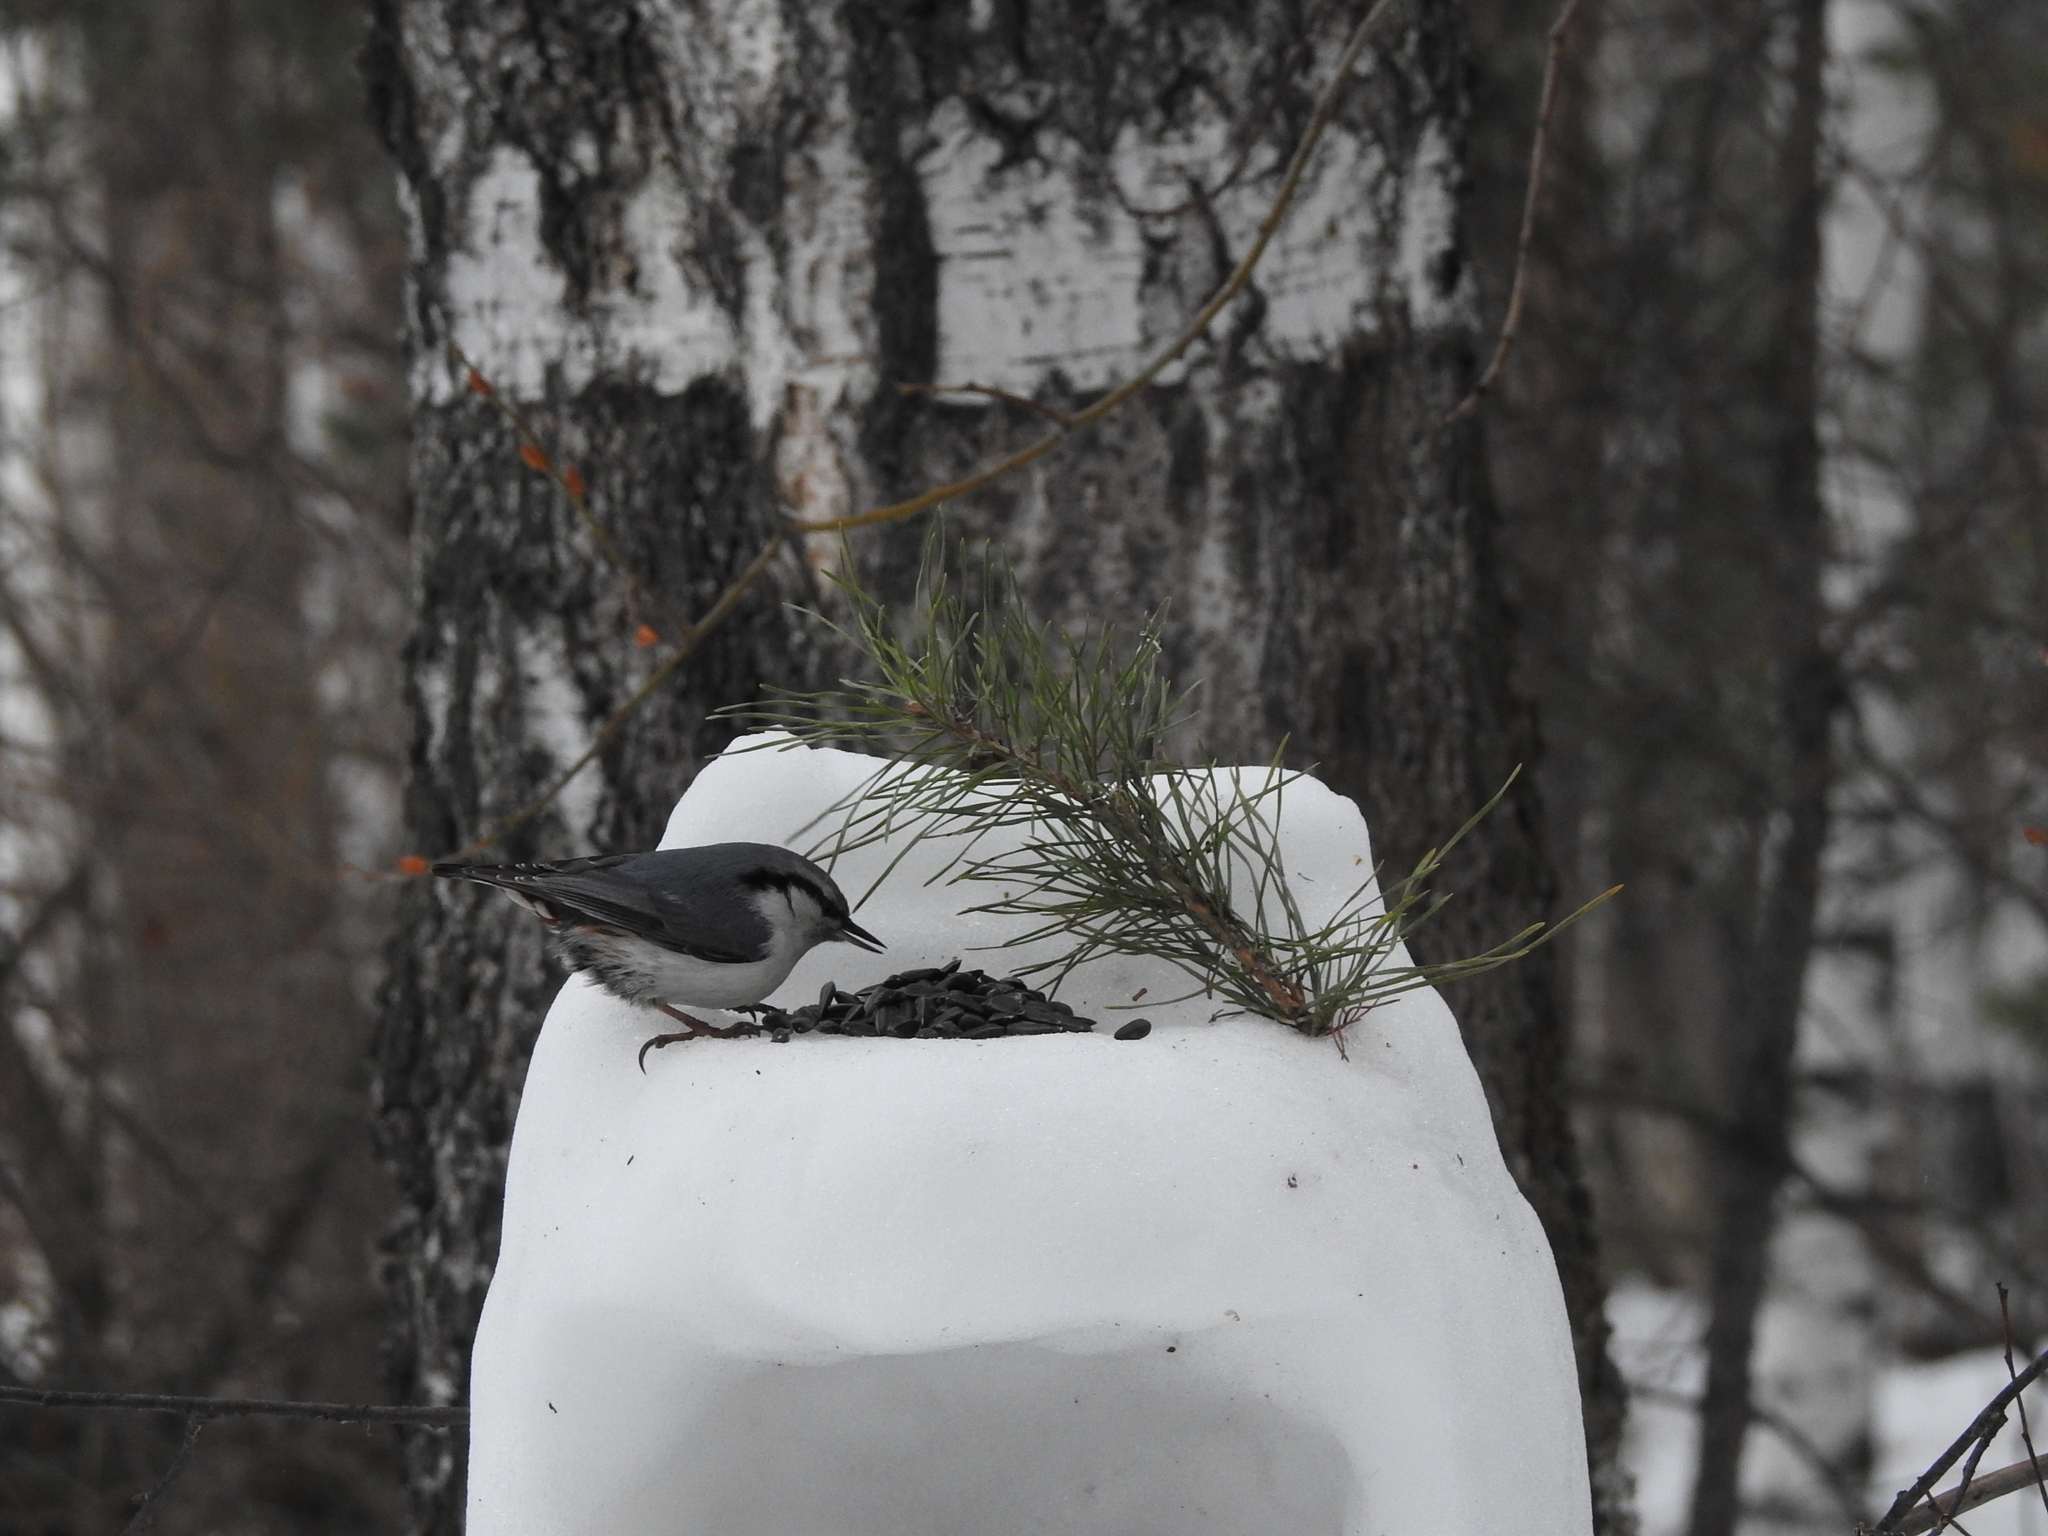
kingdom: Animalia
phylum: Chordata
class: Aves
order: Passeriformes
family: Sittidae
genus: Sitta
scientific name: Sitta europaea
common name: Eurasian nuthatch
